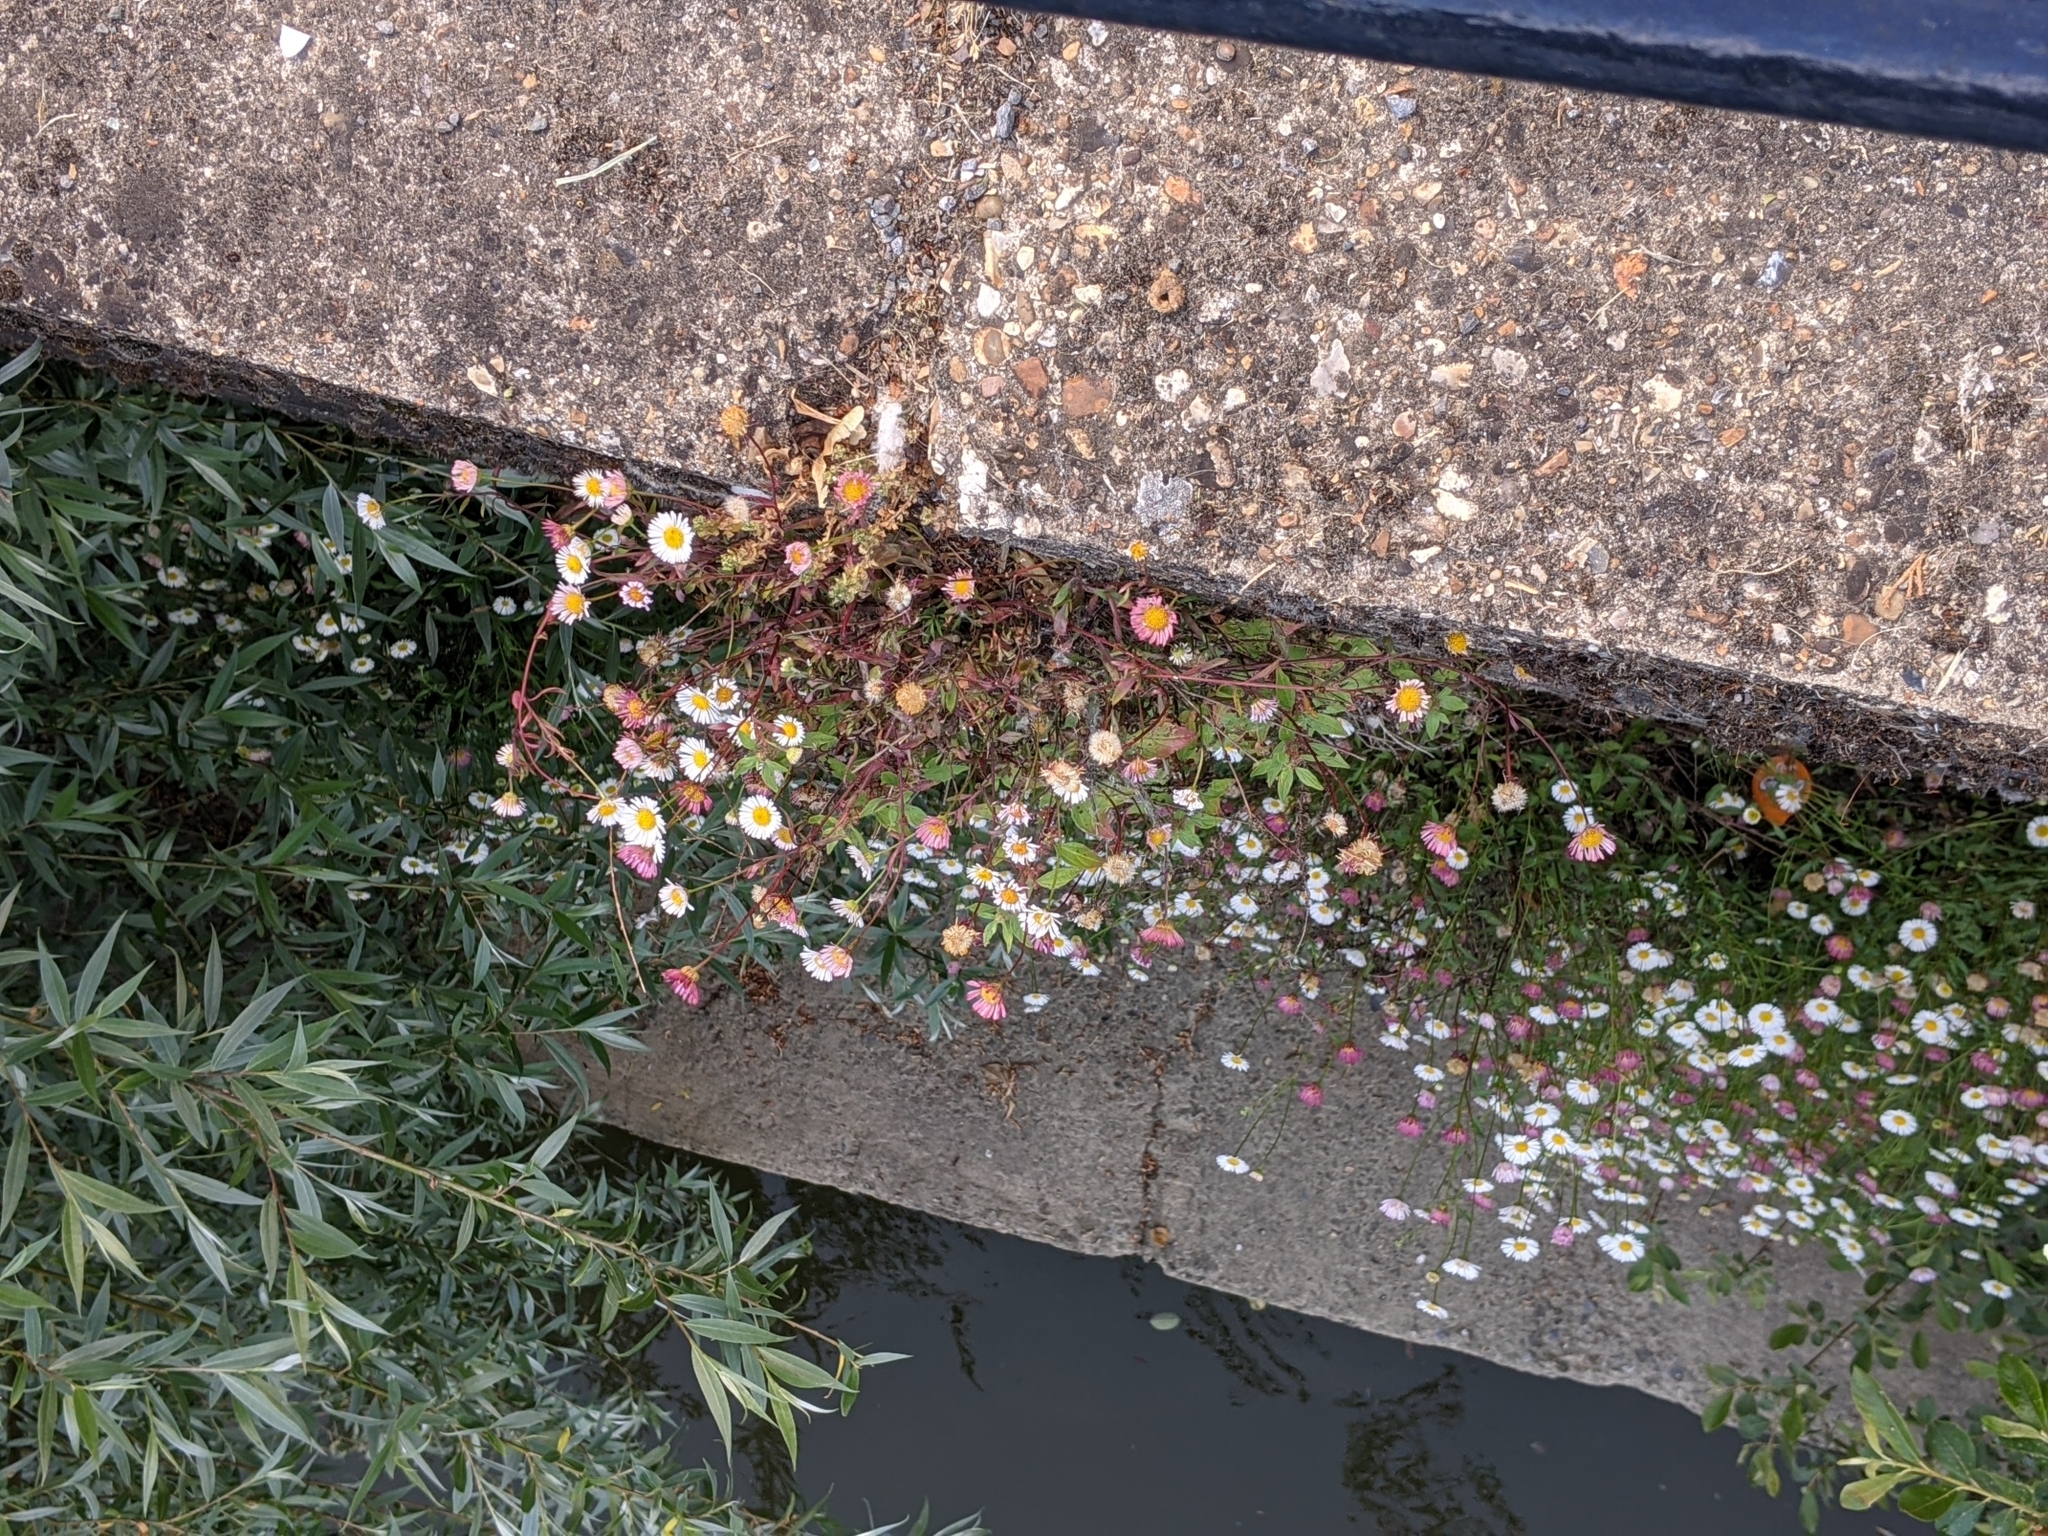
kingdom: Plantae
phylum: Tracheophyta
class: Magnoliopsida
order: Asterales
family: Asteraceae
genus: Erigeron
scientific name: Erigeron karvinskianus
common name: Mexican fleabane
